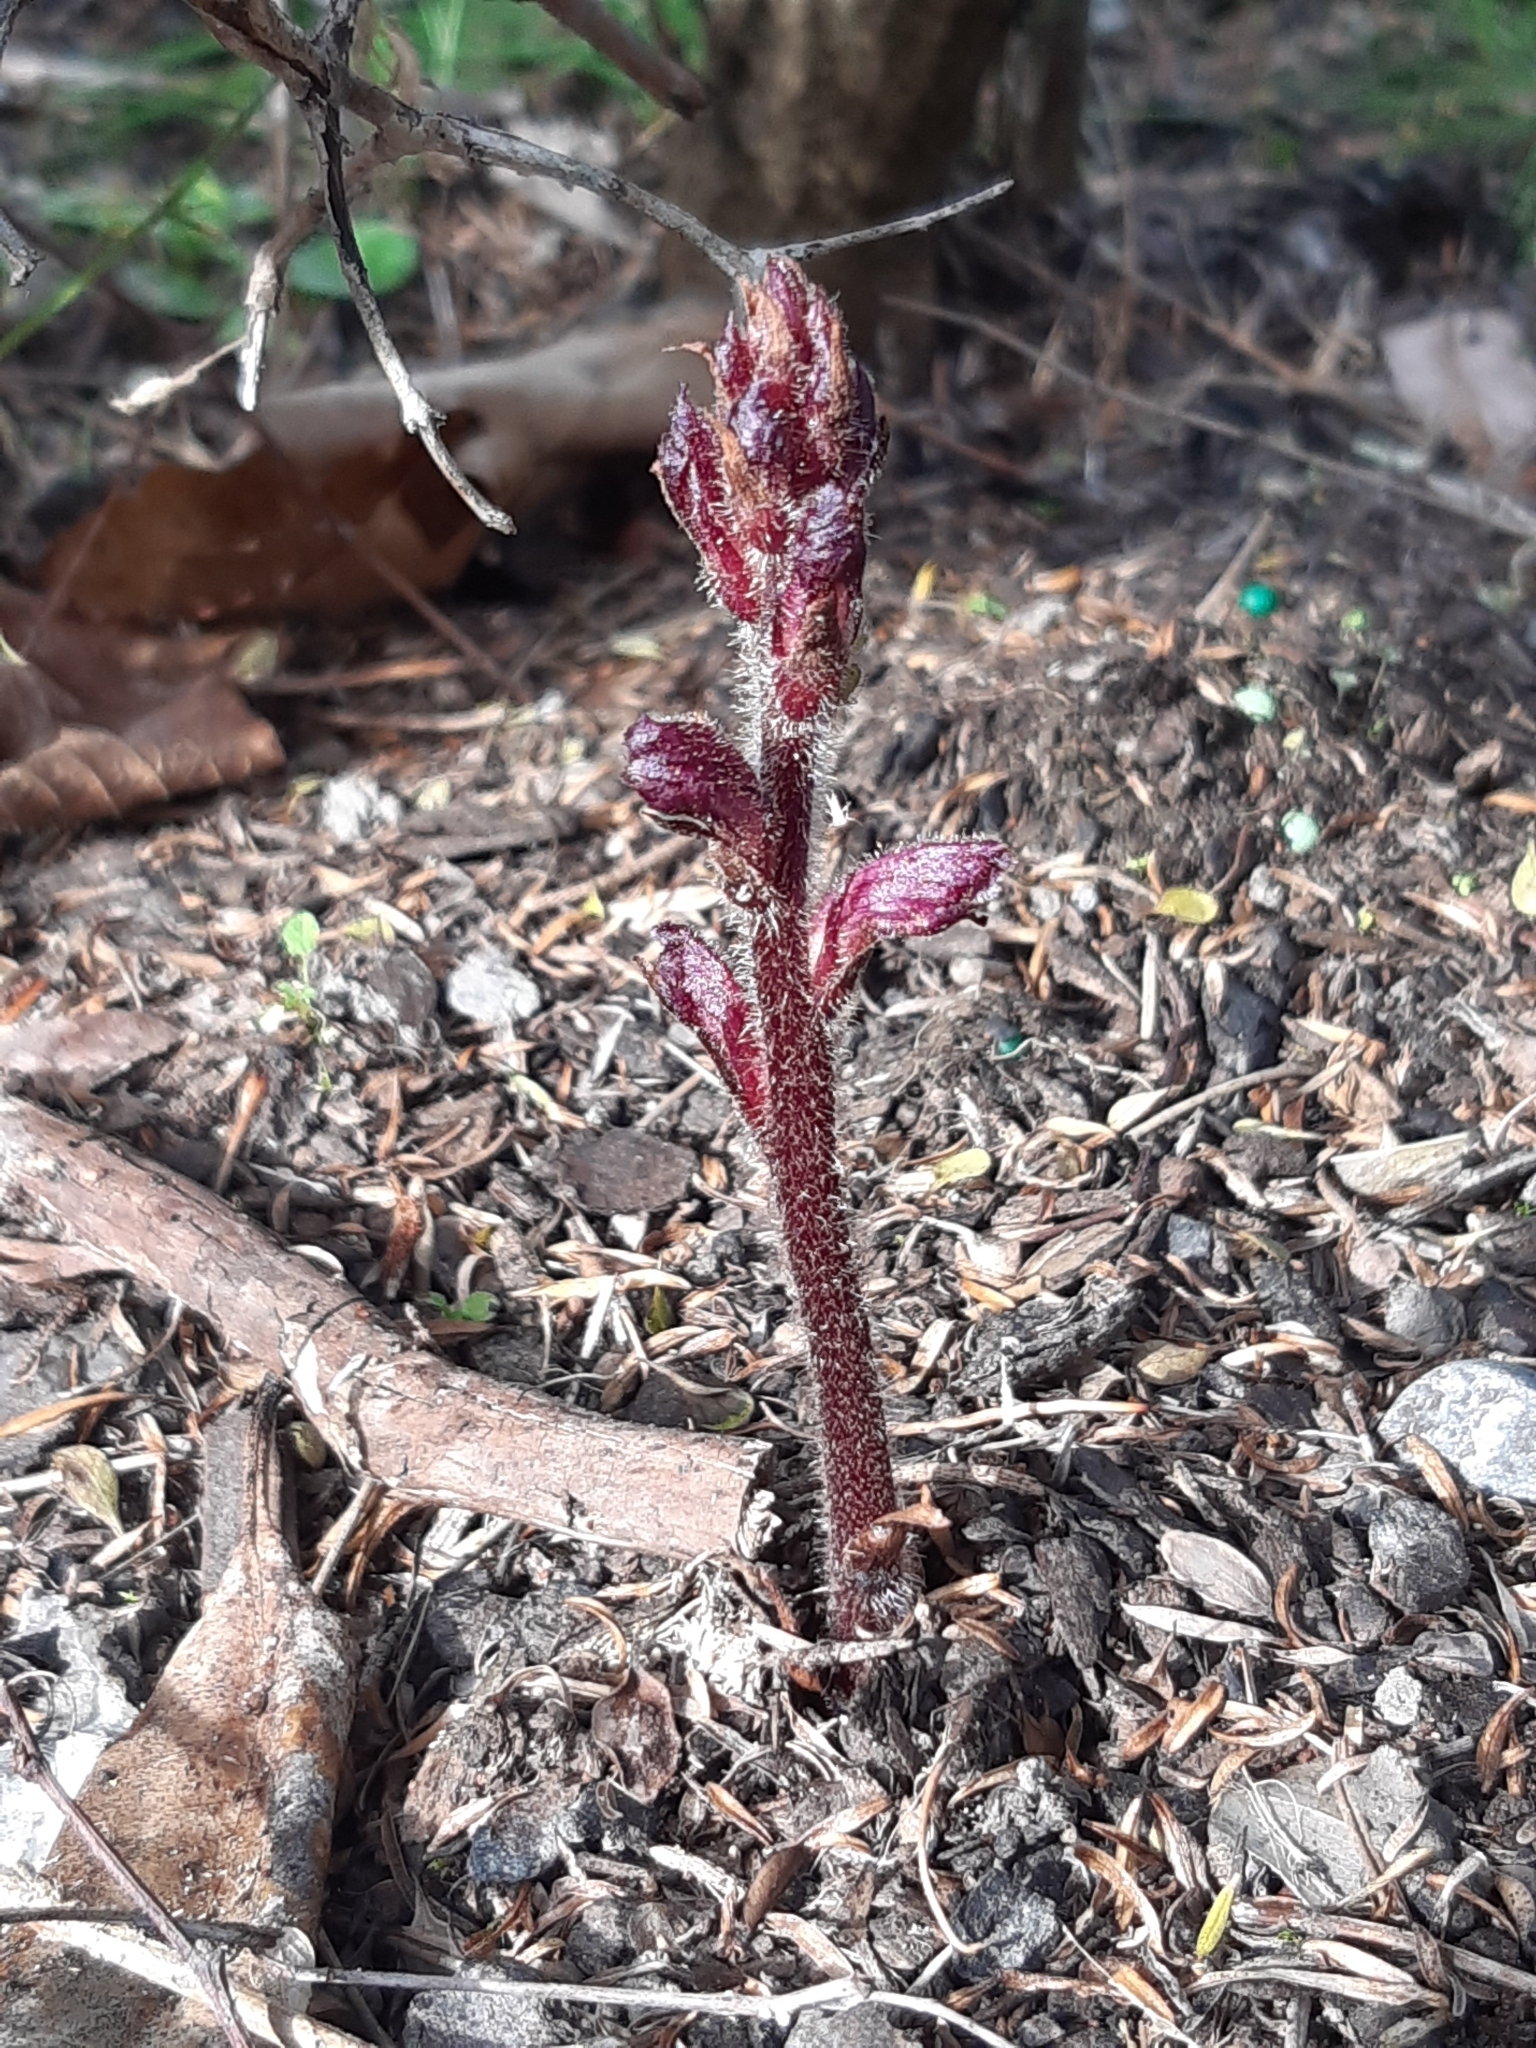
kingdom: Plantae
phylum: Tracheophyta
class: Magnoliopsida
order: Lamiales
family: Orobanchaceae
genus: Orobanche
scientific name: Orobanche minor
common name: Common broomrape
